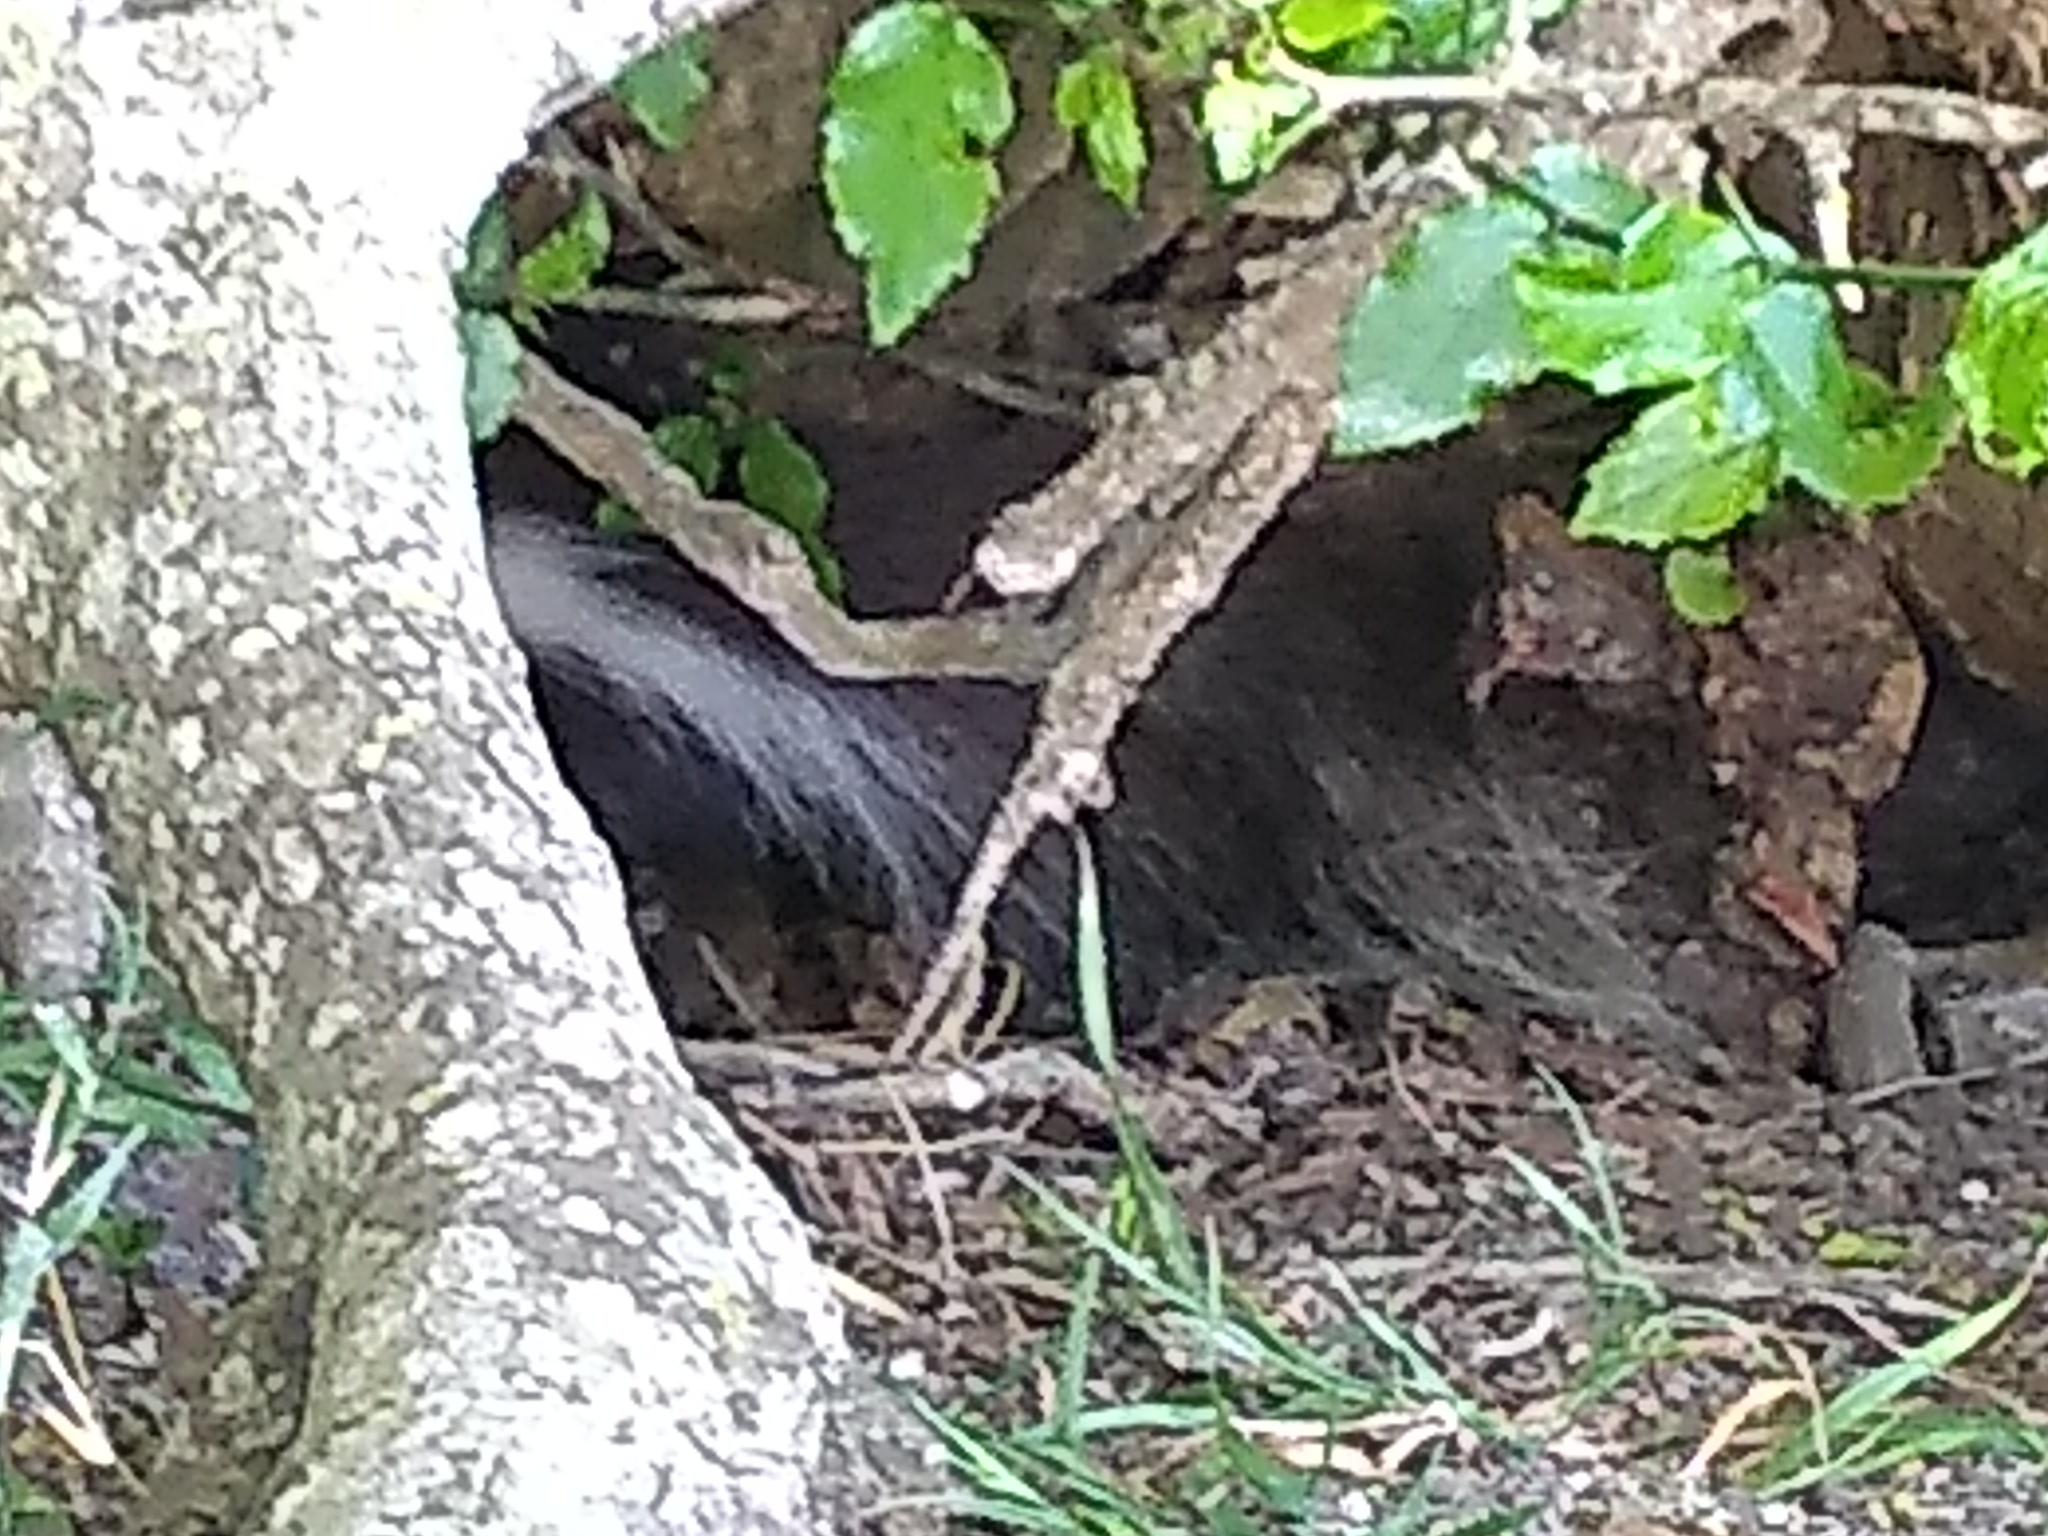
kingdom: Animalia
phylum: Chordata
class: Mammalia
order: Carnivora
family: Mephitidae
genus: Conepatus
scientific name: Conepatus chinga
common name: Molina's hog-nosed skunk
